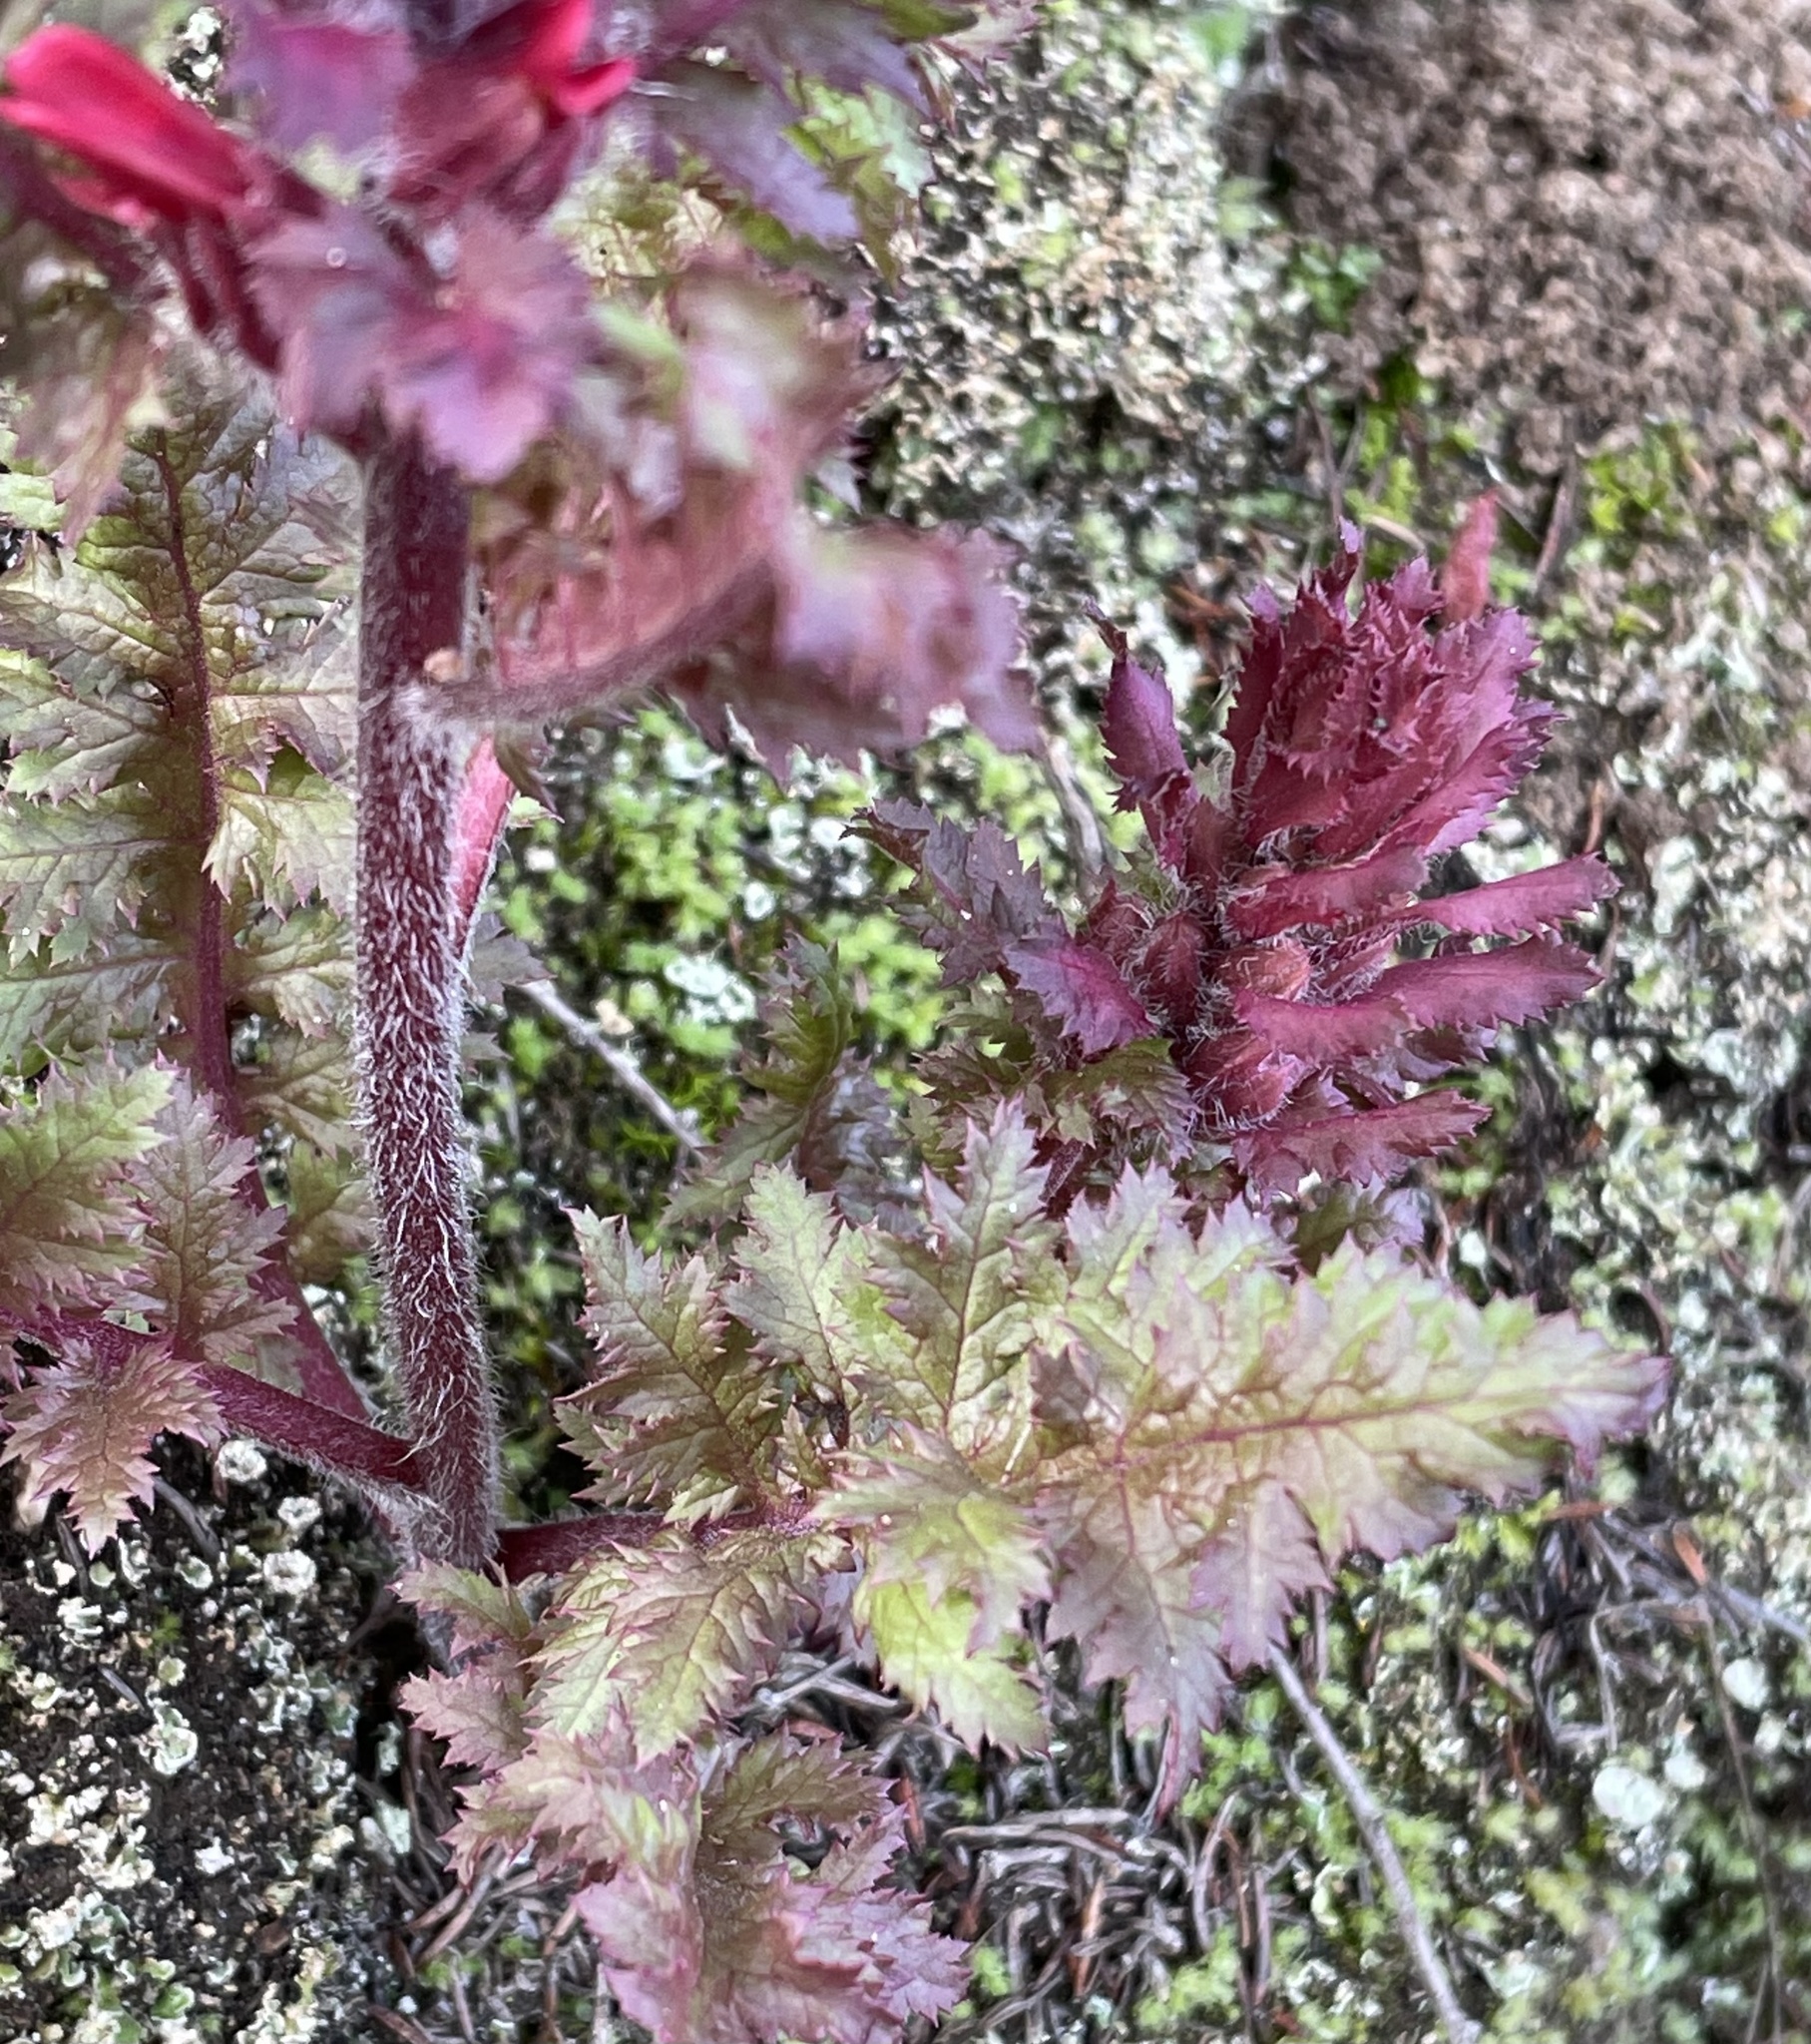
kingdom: Plantae
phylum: Tracheophyta
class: Magnoliopsida
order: Lamiales
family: Orobanchaceae
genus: Pedicularis
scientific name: Pedicularis densiflora
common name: Indian warrior
